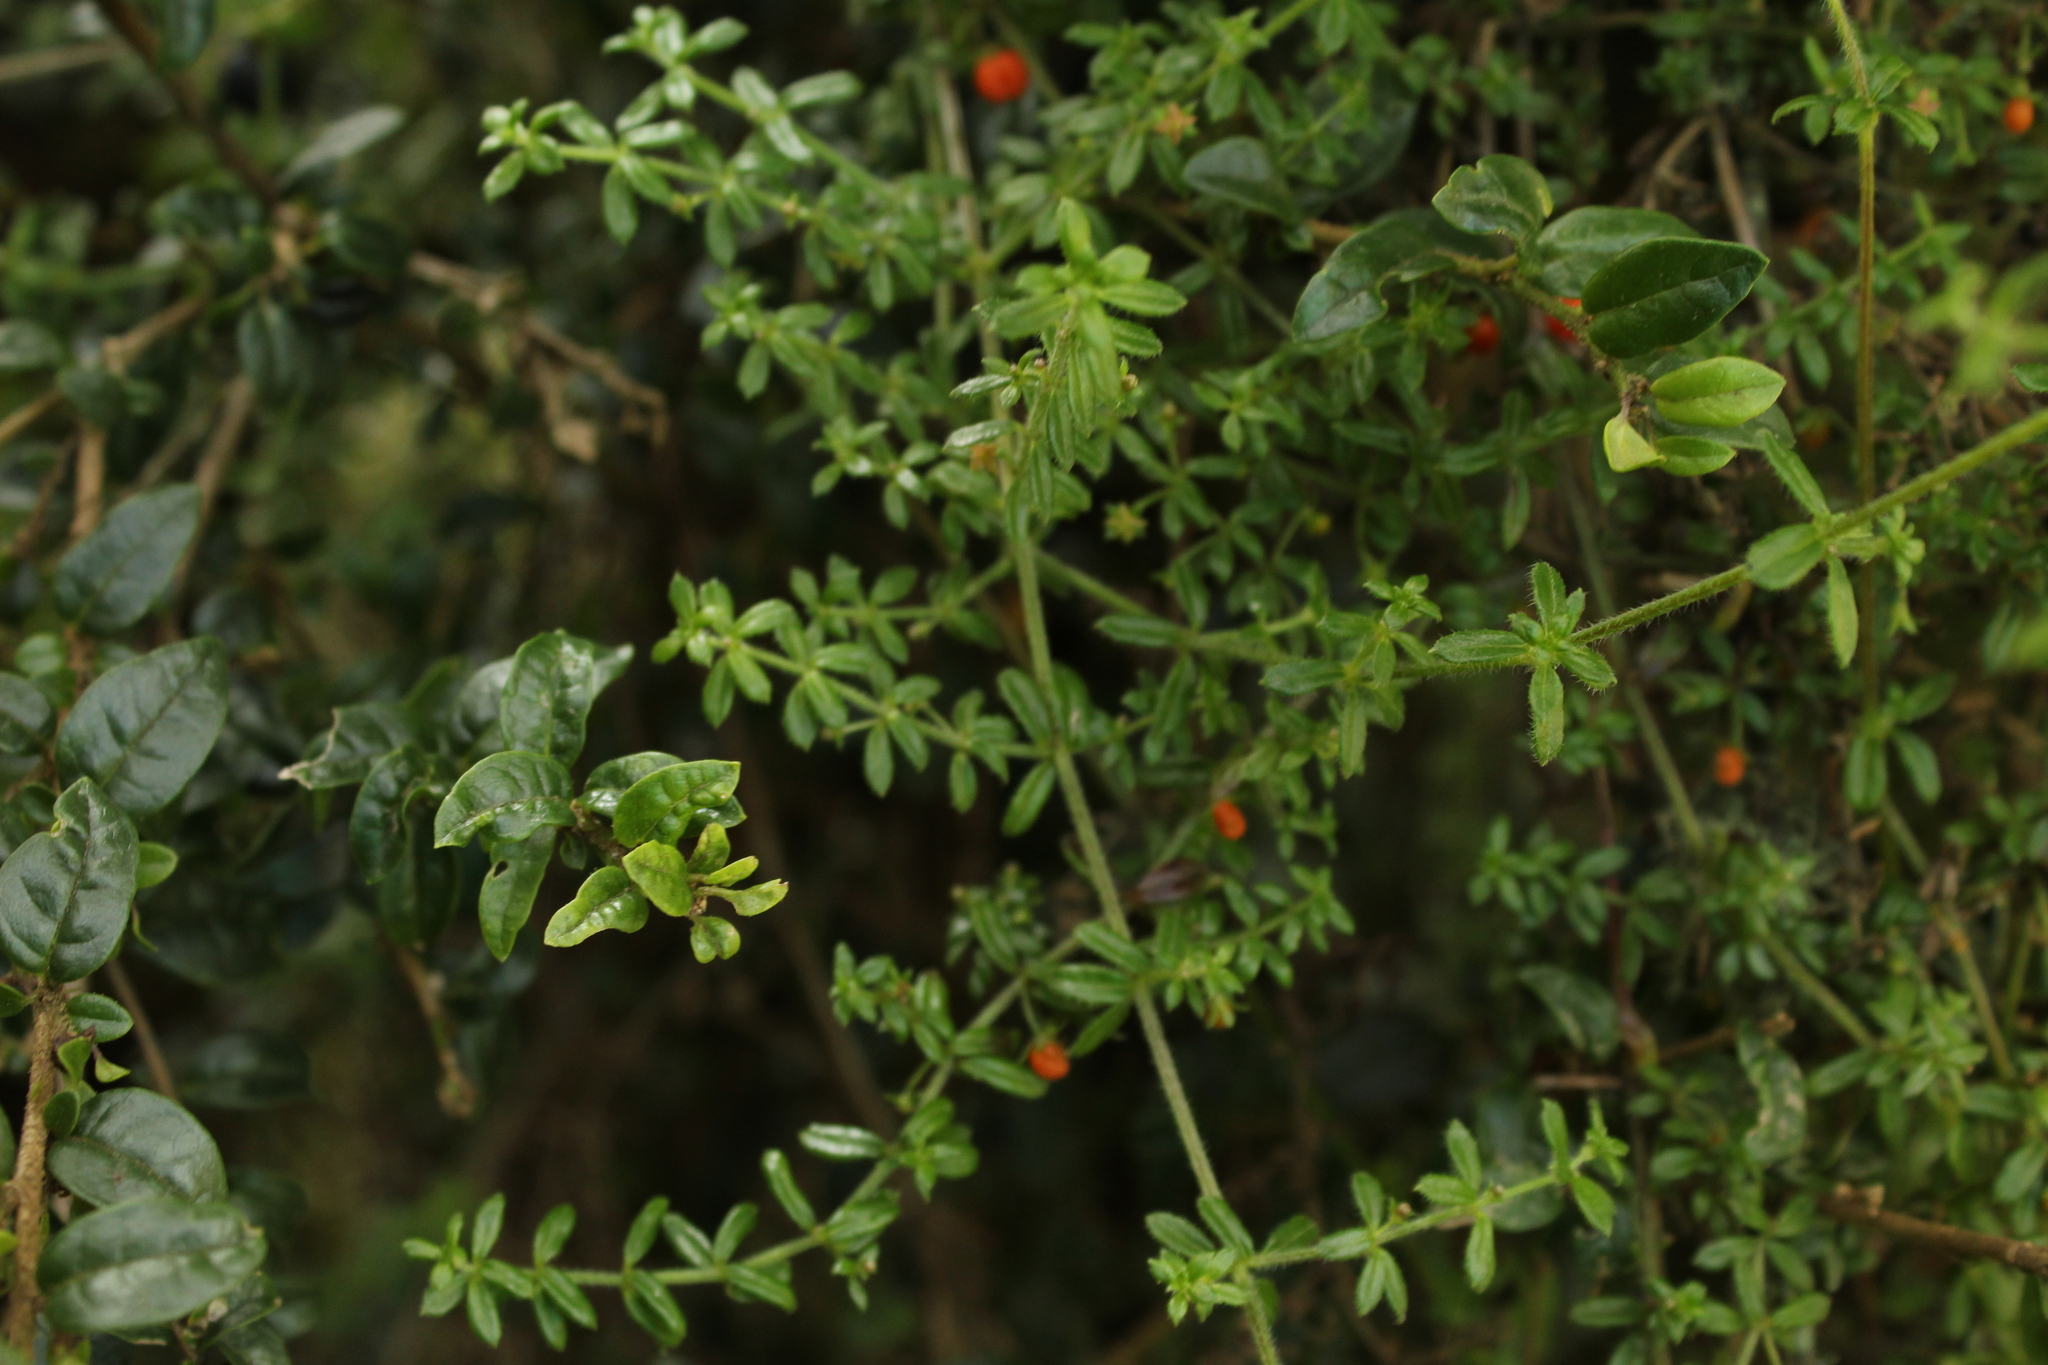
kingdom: Plantae
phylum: Tracheophyta
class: Magnoliopsida
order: Gentianales
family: Rubiaceae
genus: Galium
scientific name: Galium hypocarpium
